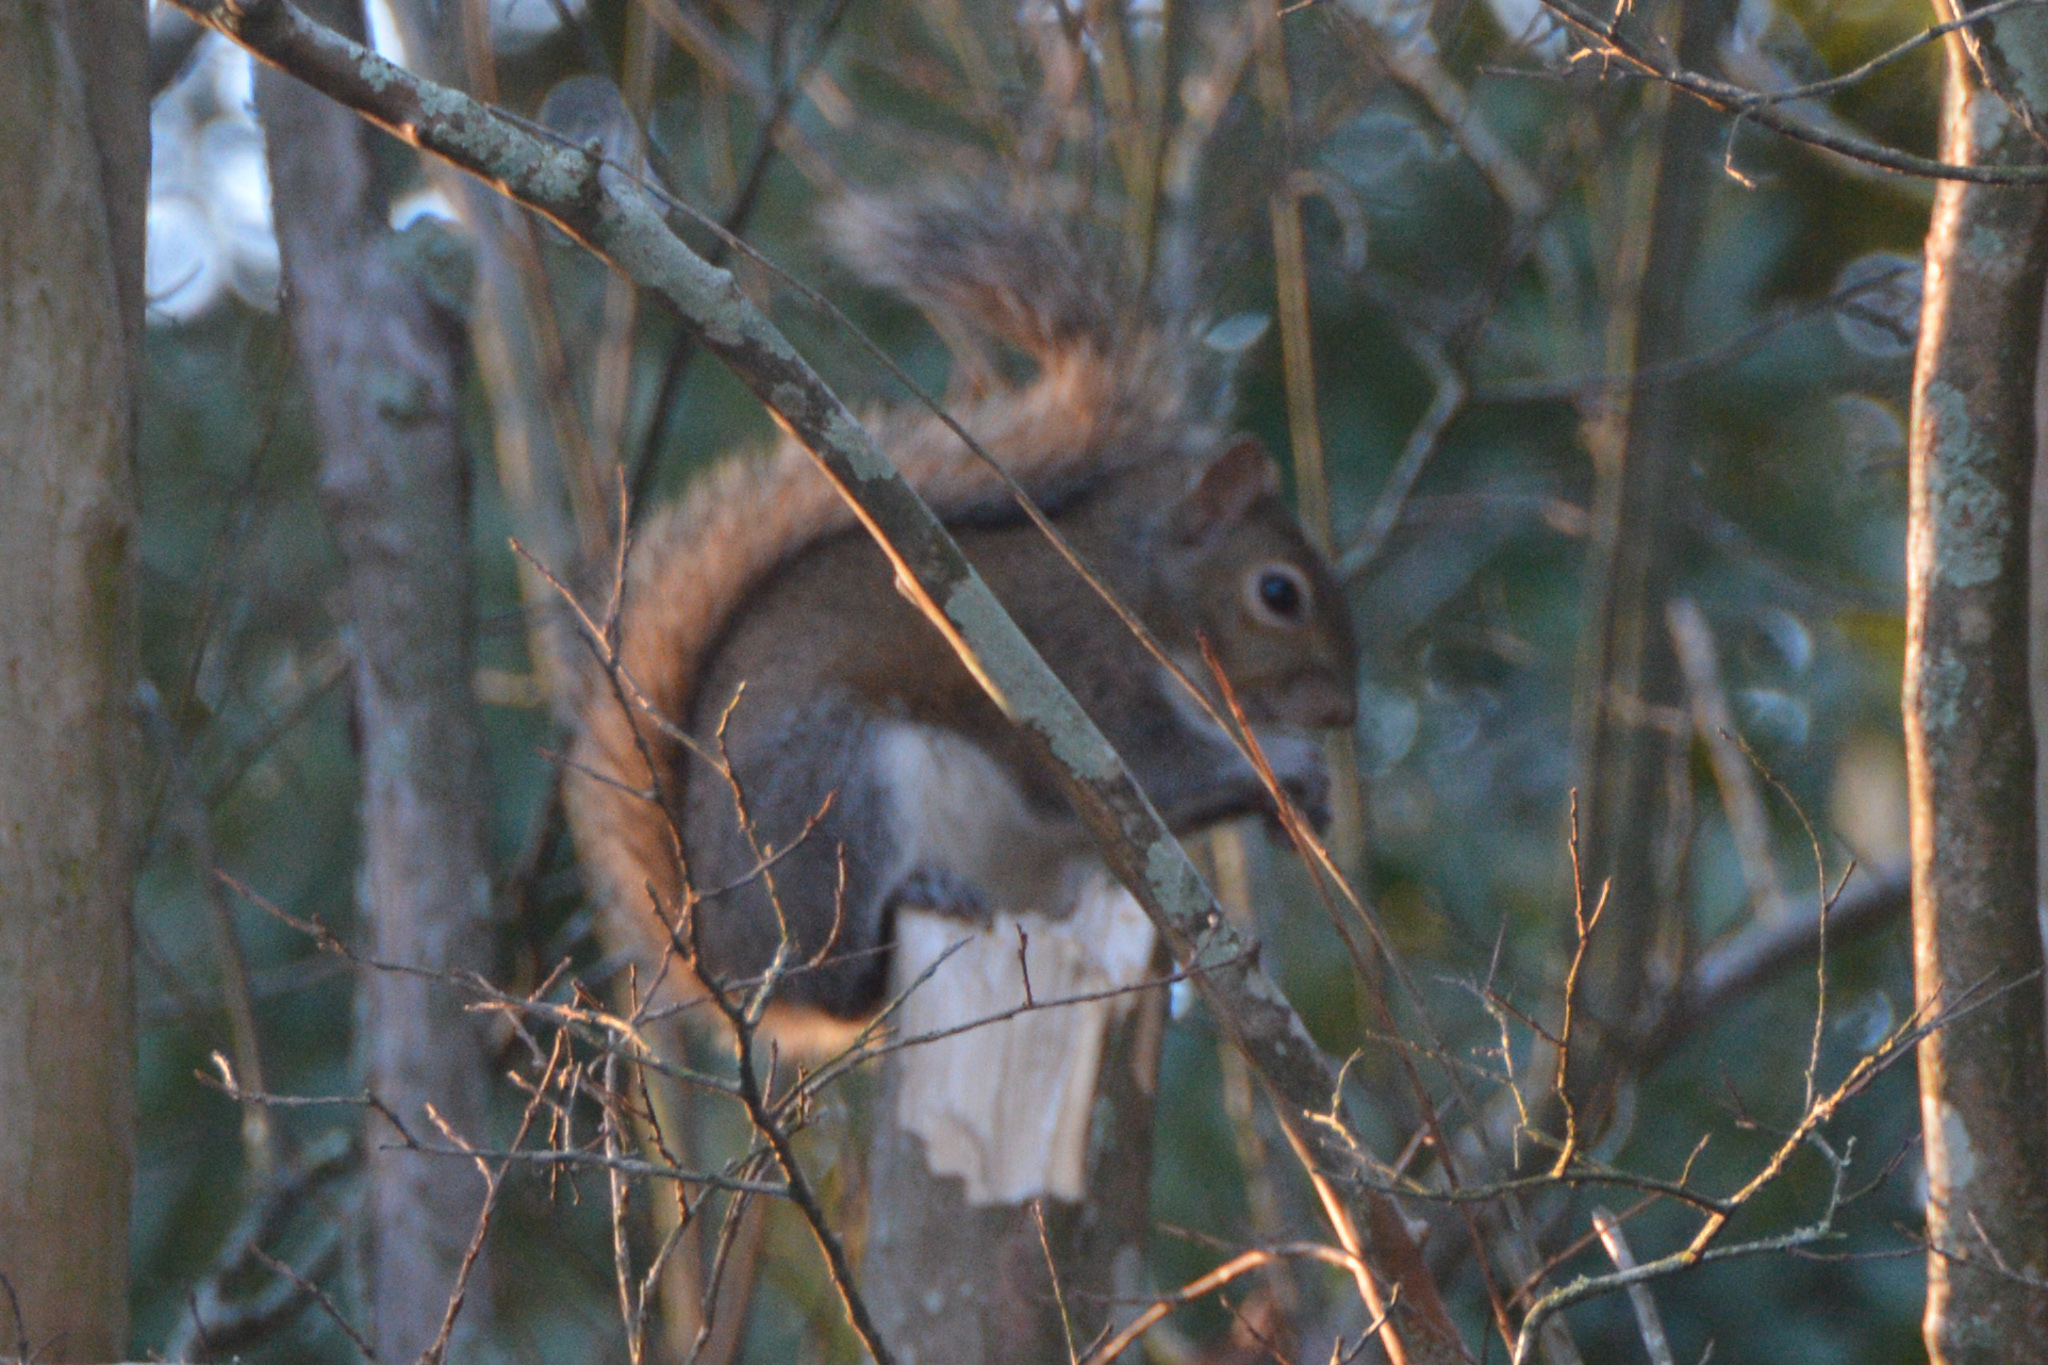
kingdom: Animalia
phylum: Chordata
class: Mammalia
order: Rodentia
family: Sciuridae
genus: Sciurus
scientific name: Sciurus carolinensis
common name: Eastern gray squirrel
